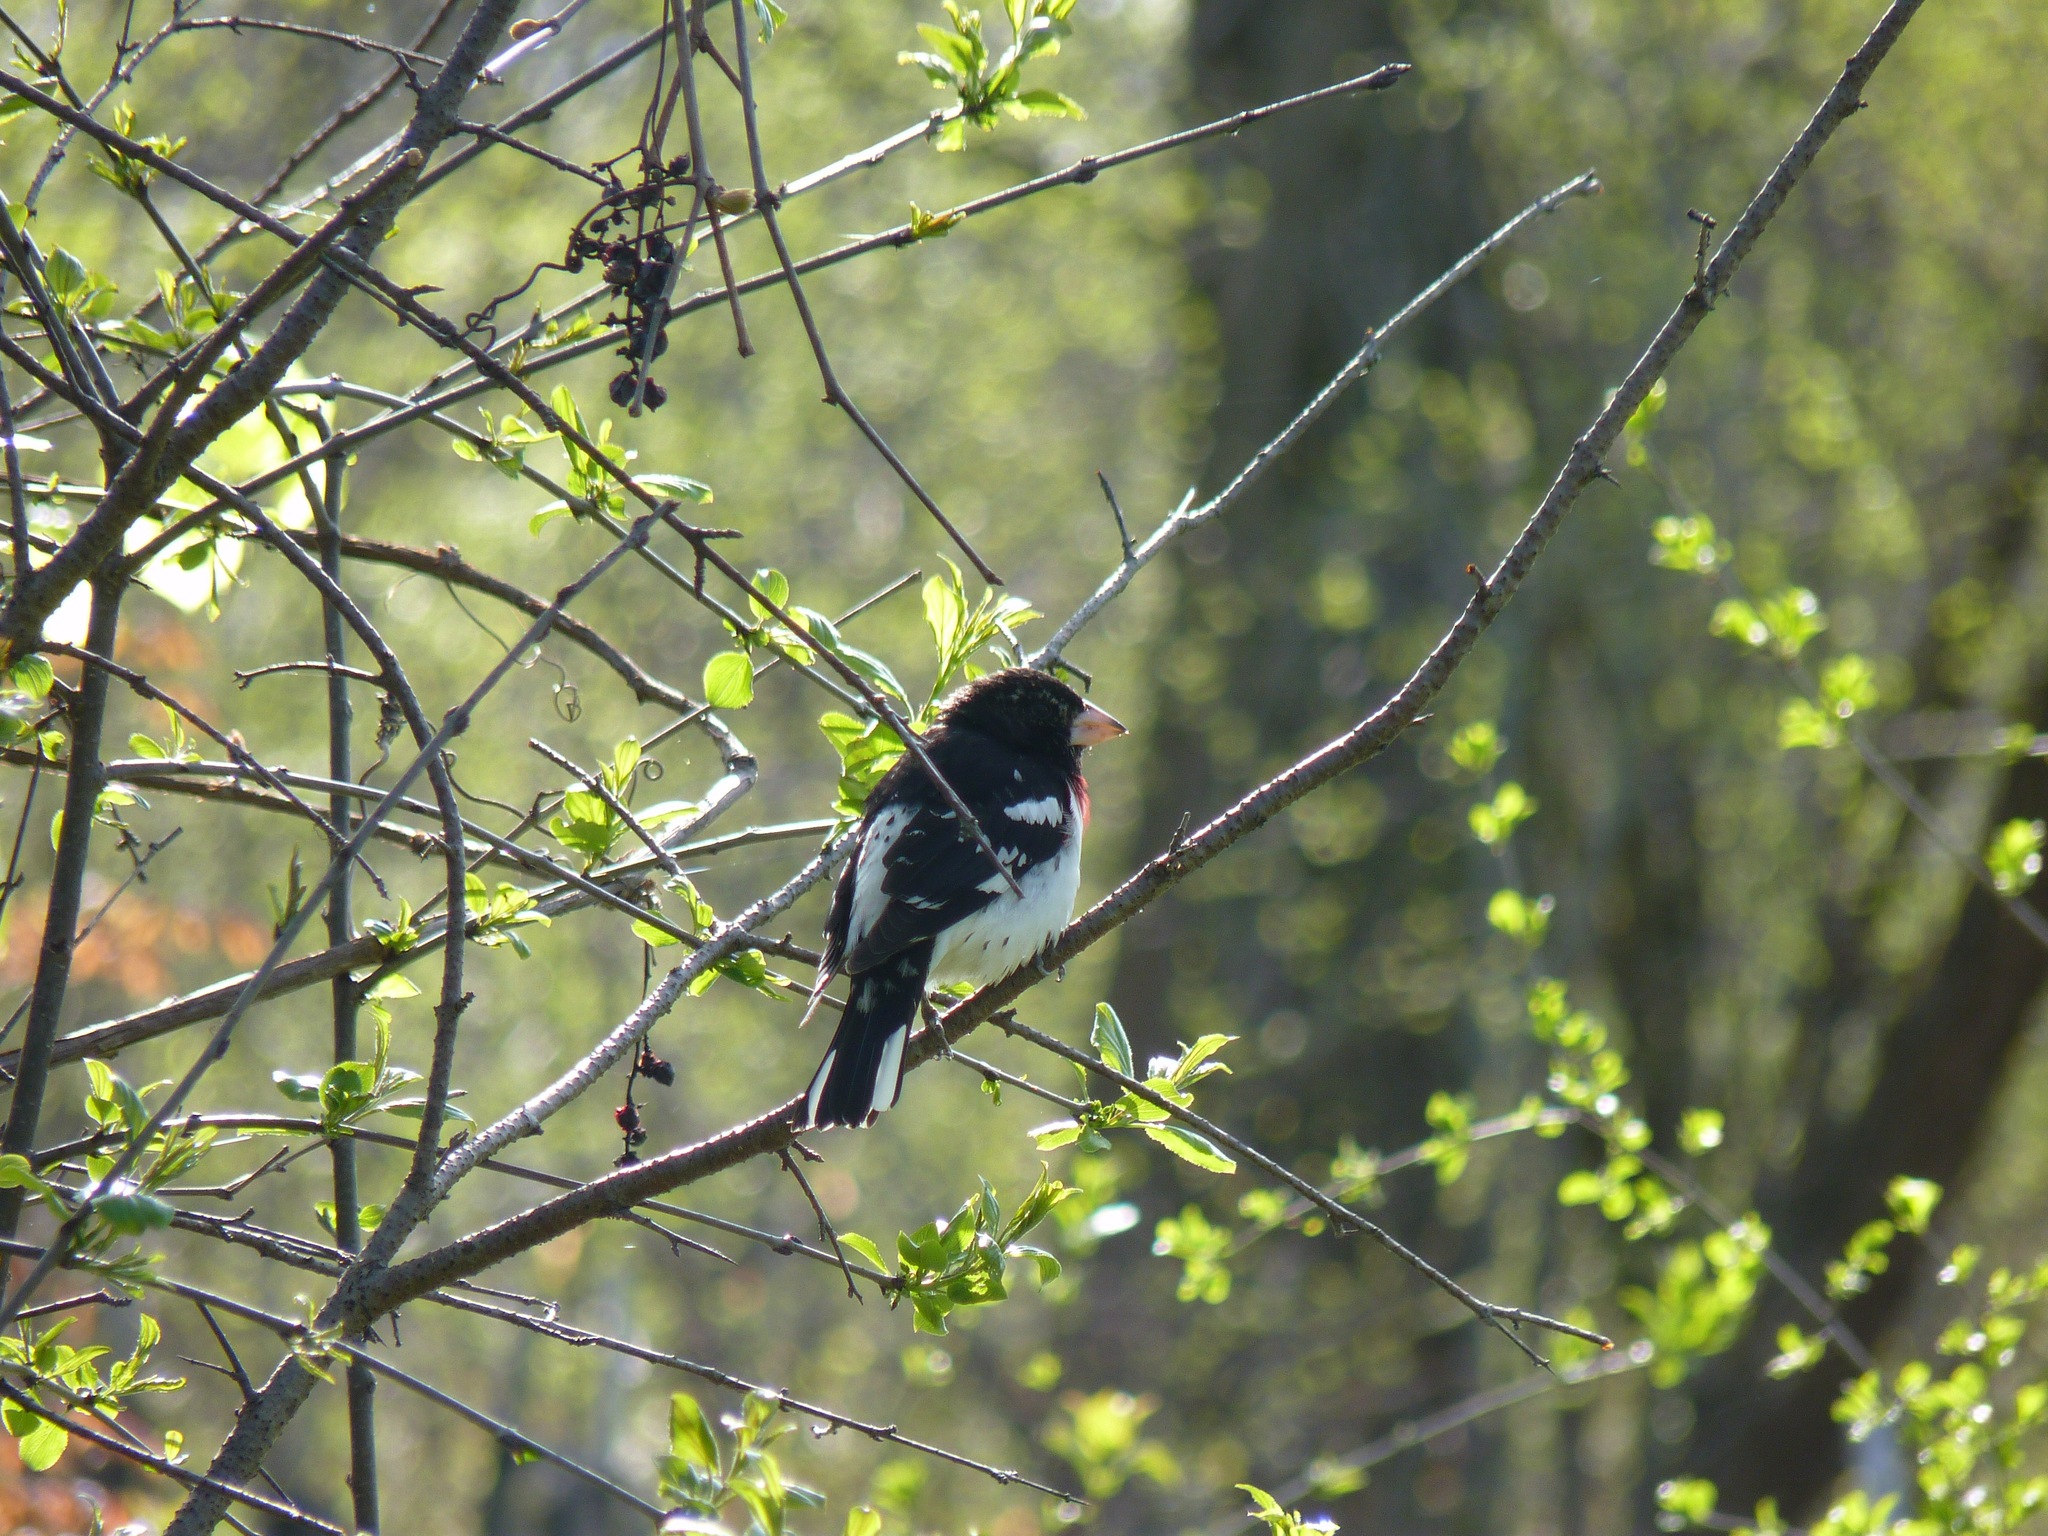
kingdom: Animalia
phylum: Chordata
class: Aves
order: Passeriformes
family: Cardinalidae
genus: Pheucticus
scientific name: Pheucticus ludovicianus
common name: Rose-breasted grosbeak
